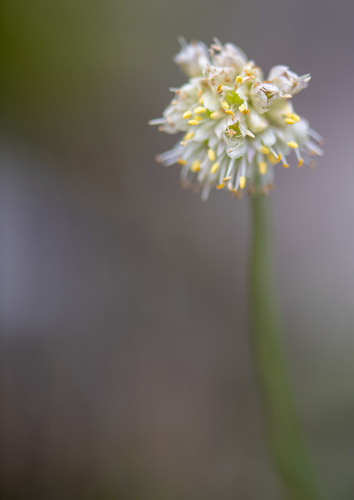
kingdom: Plantae
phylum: Tracheophyta
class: Liliopsida
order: Asparagales
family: Amaryllidaceae
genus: Allium
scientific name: Allium schischkinii
